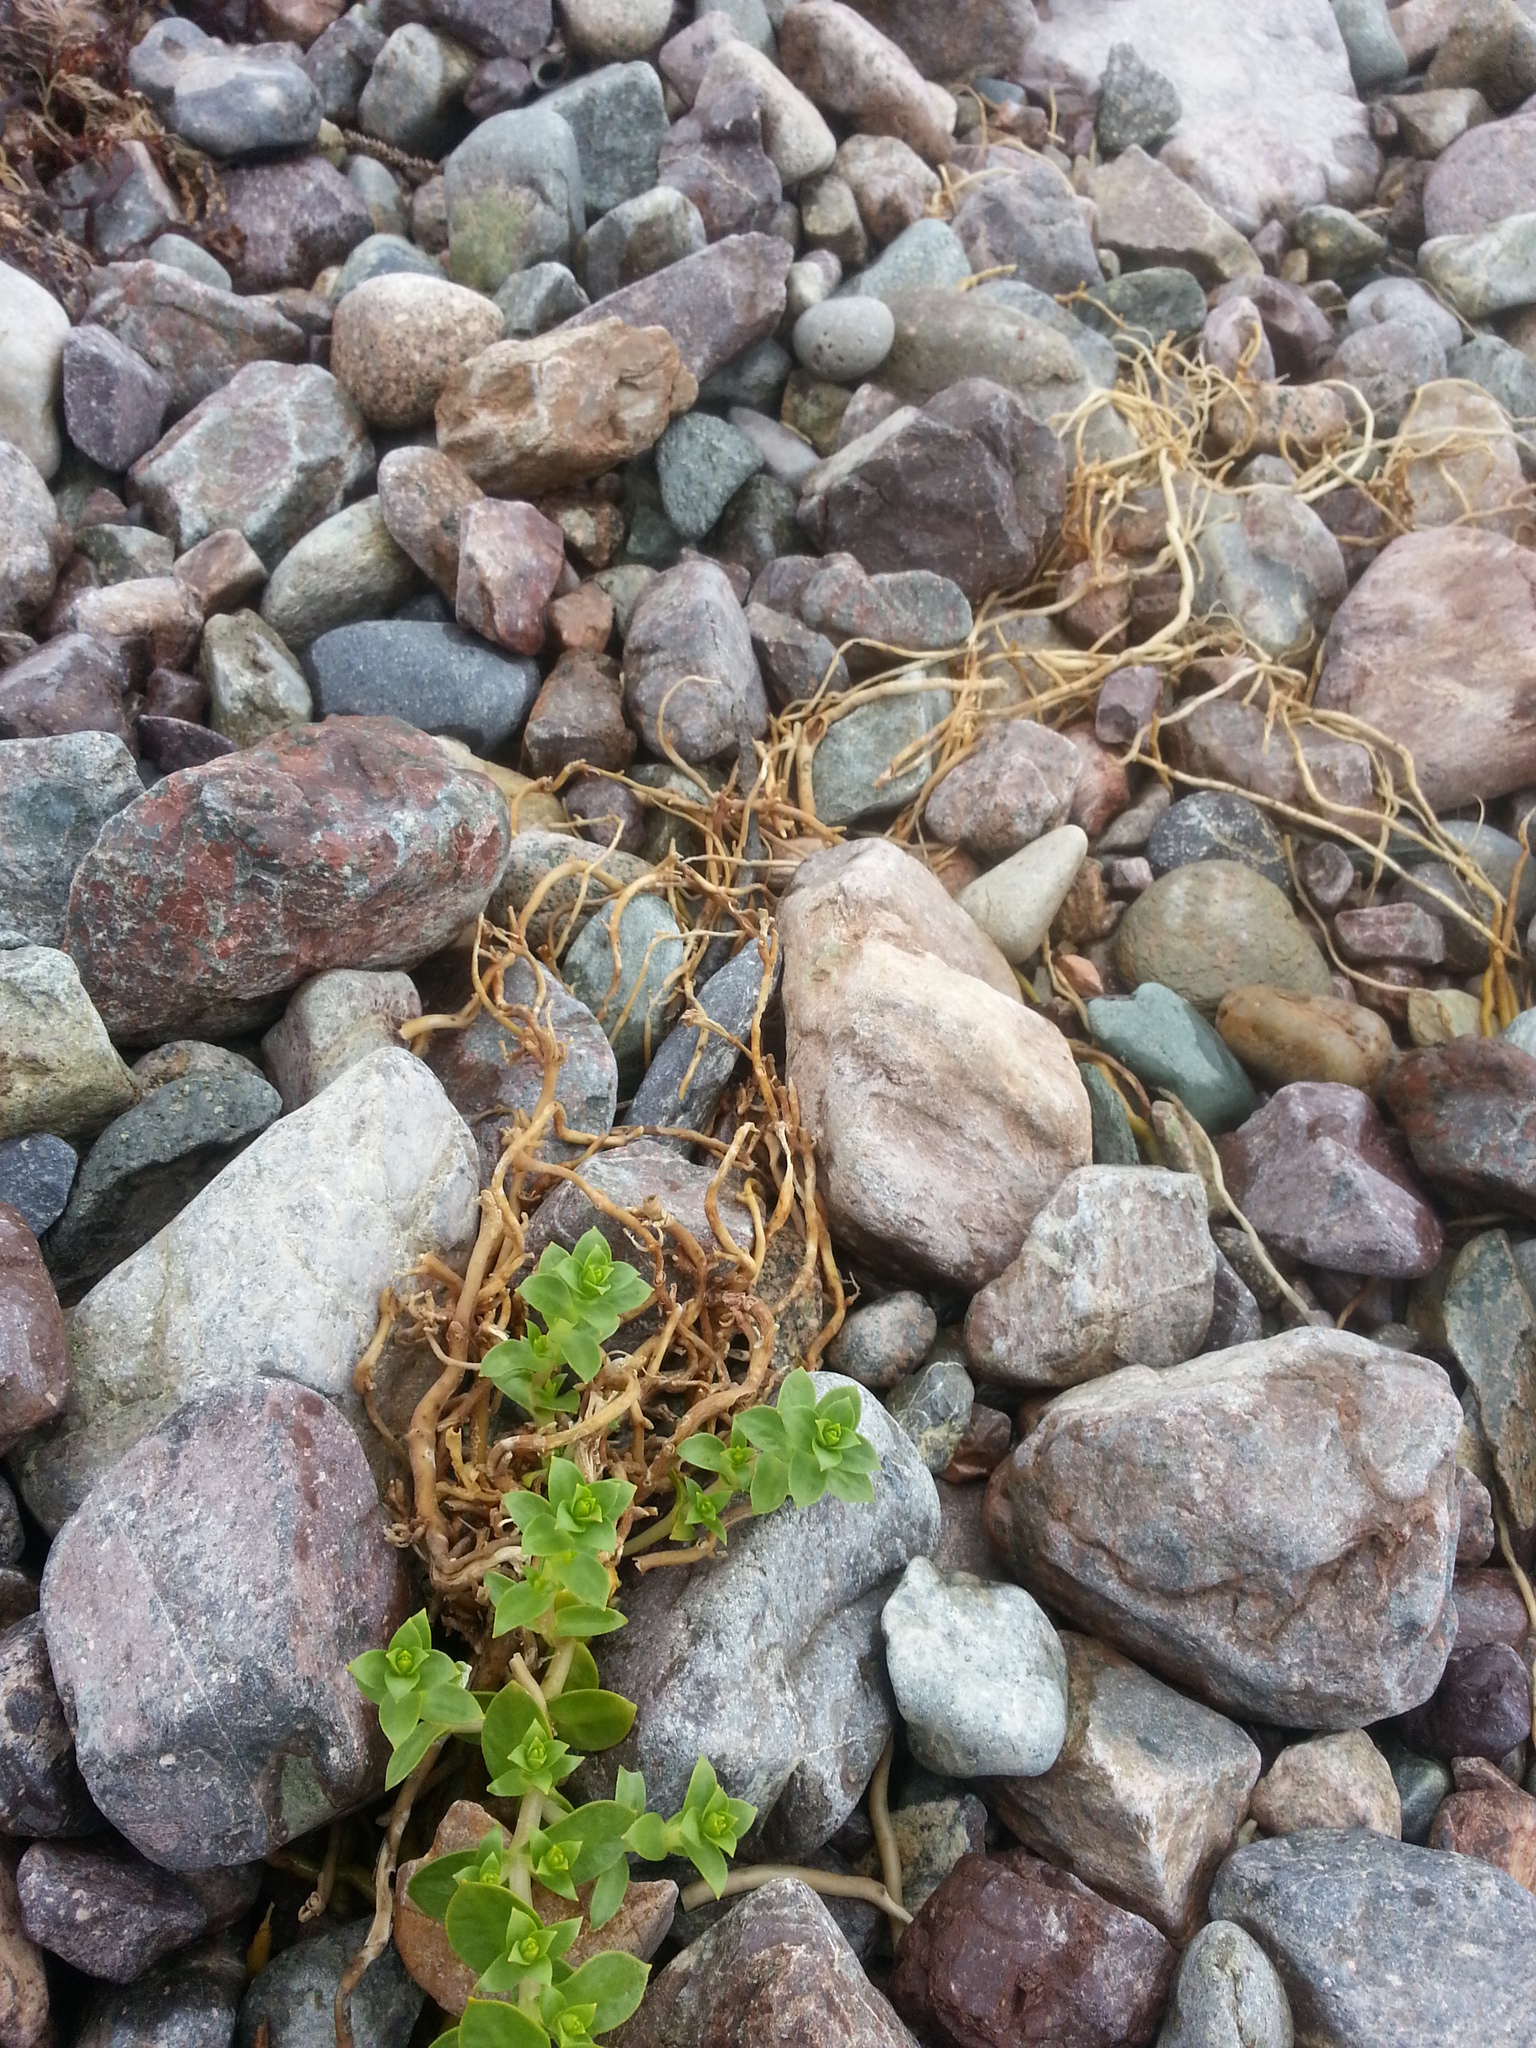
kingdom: Plantae
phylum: Tracheophyta
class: Magnoliopsida
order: Caryophyllales
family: Caryophyllaceae
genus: Honckenya
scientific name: Honckenya peploides
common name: Sea sandwort
